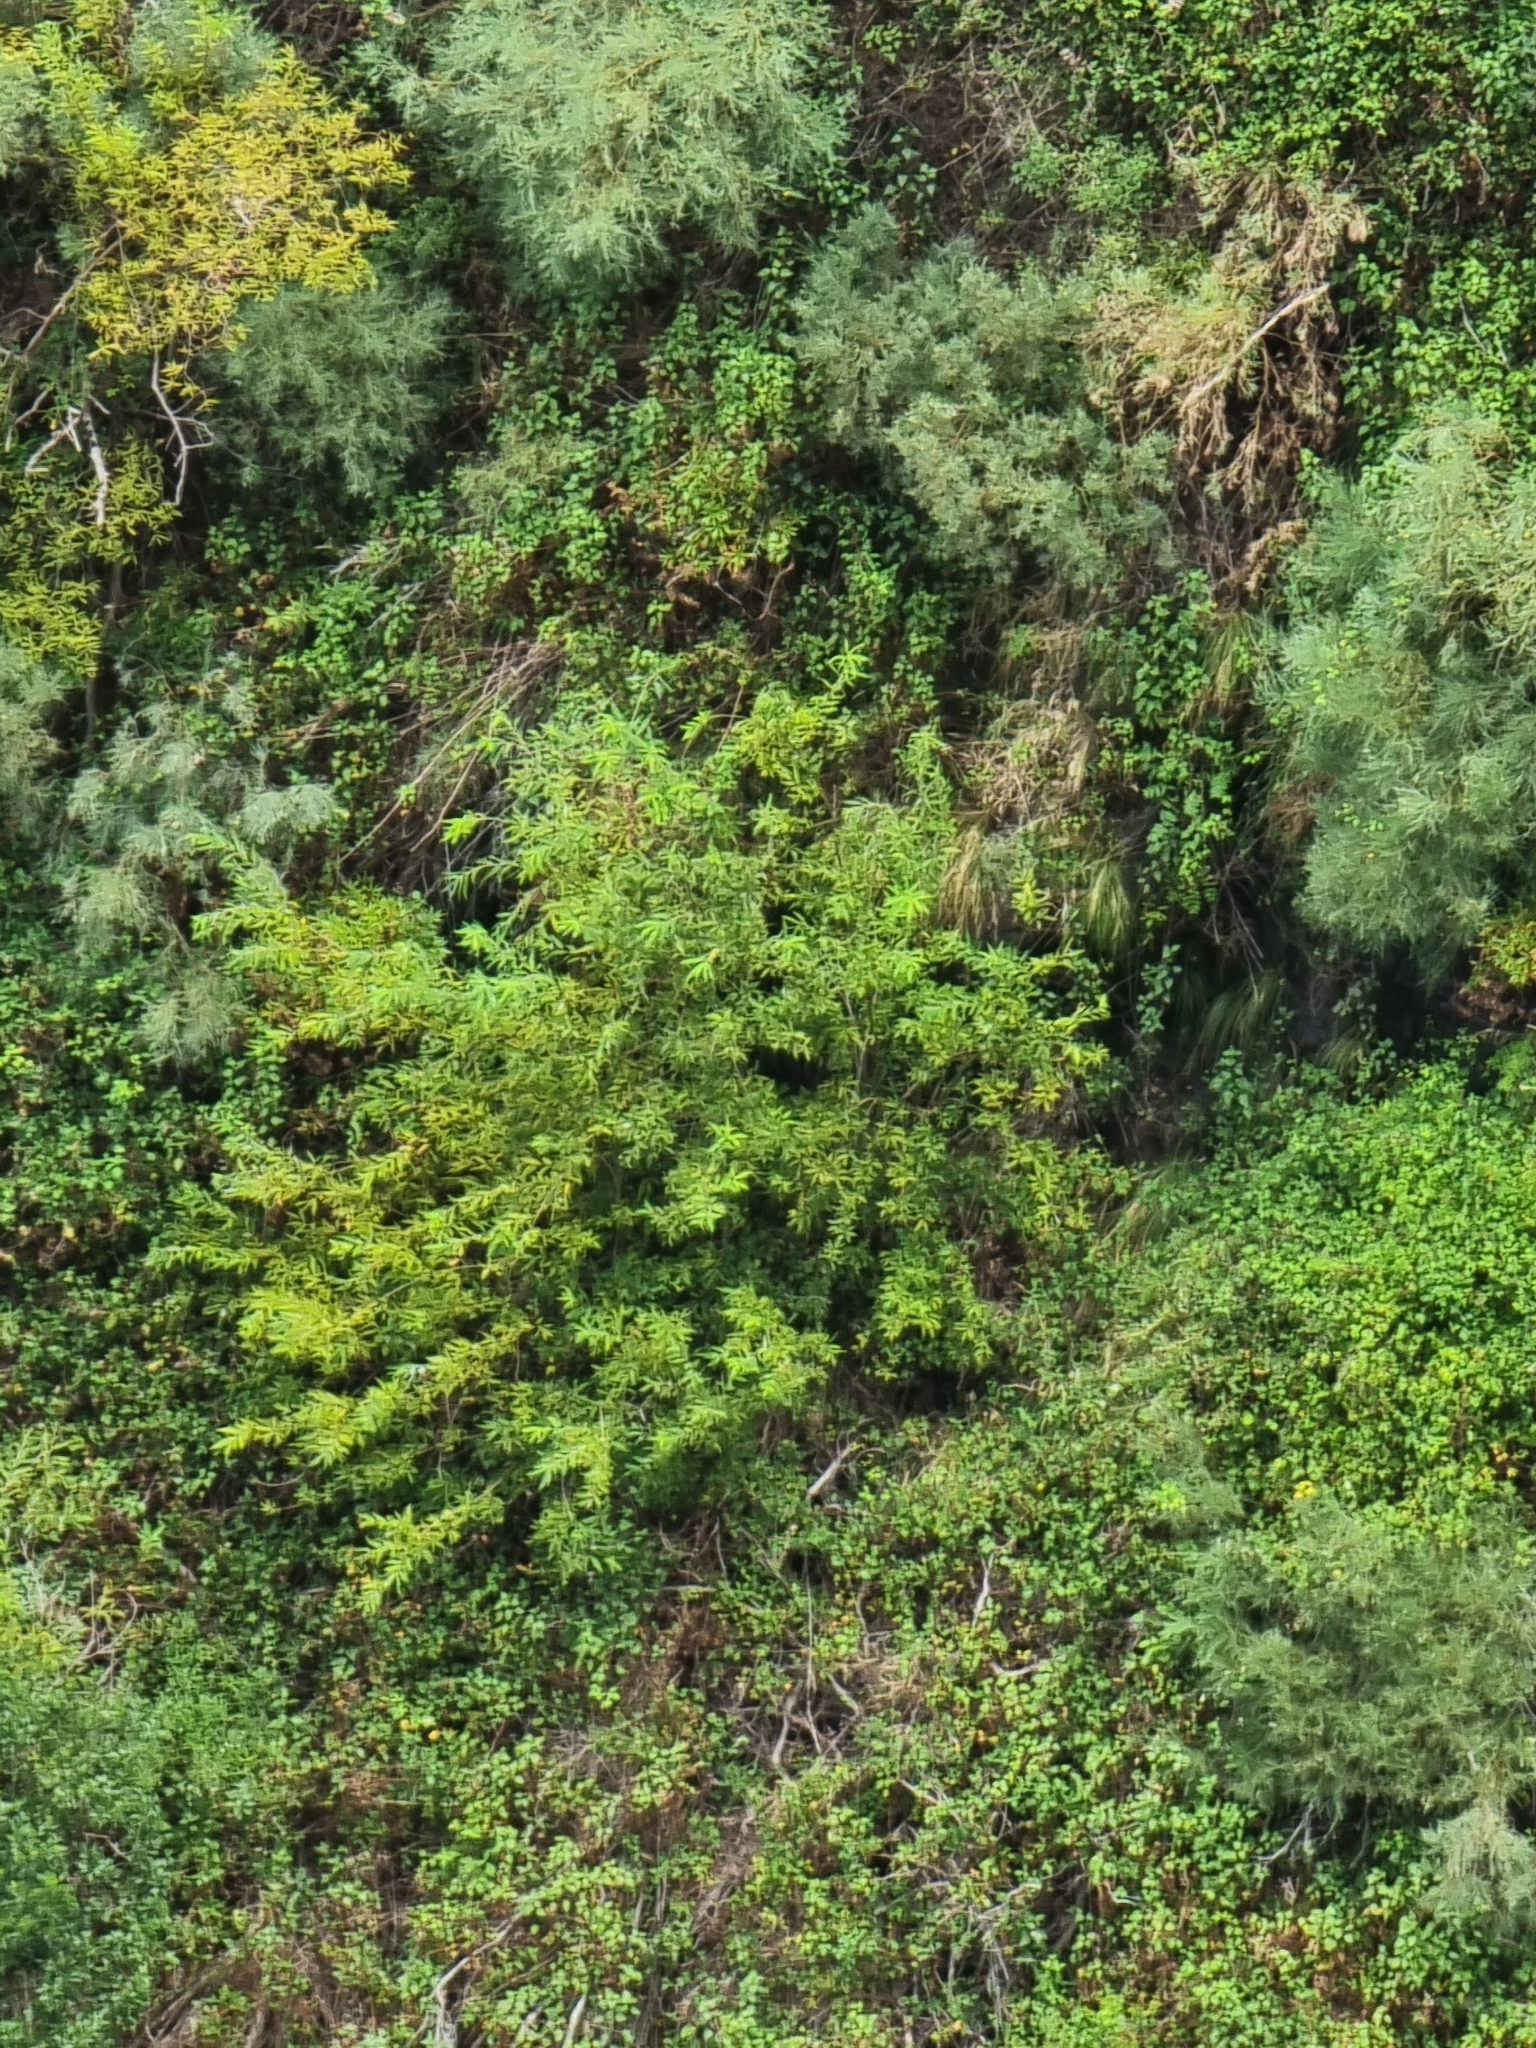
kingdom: Plantae
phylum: Tracheophyta
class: Magnoliopsida
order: Malpighiales
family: Salicaceae
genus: Salix
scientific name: Salix canariensis
